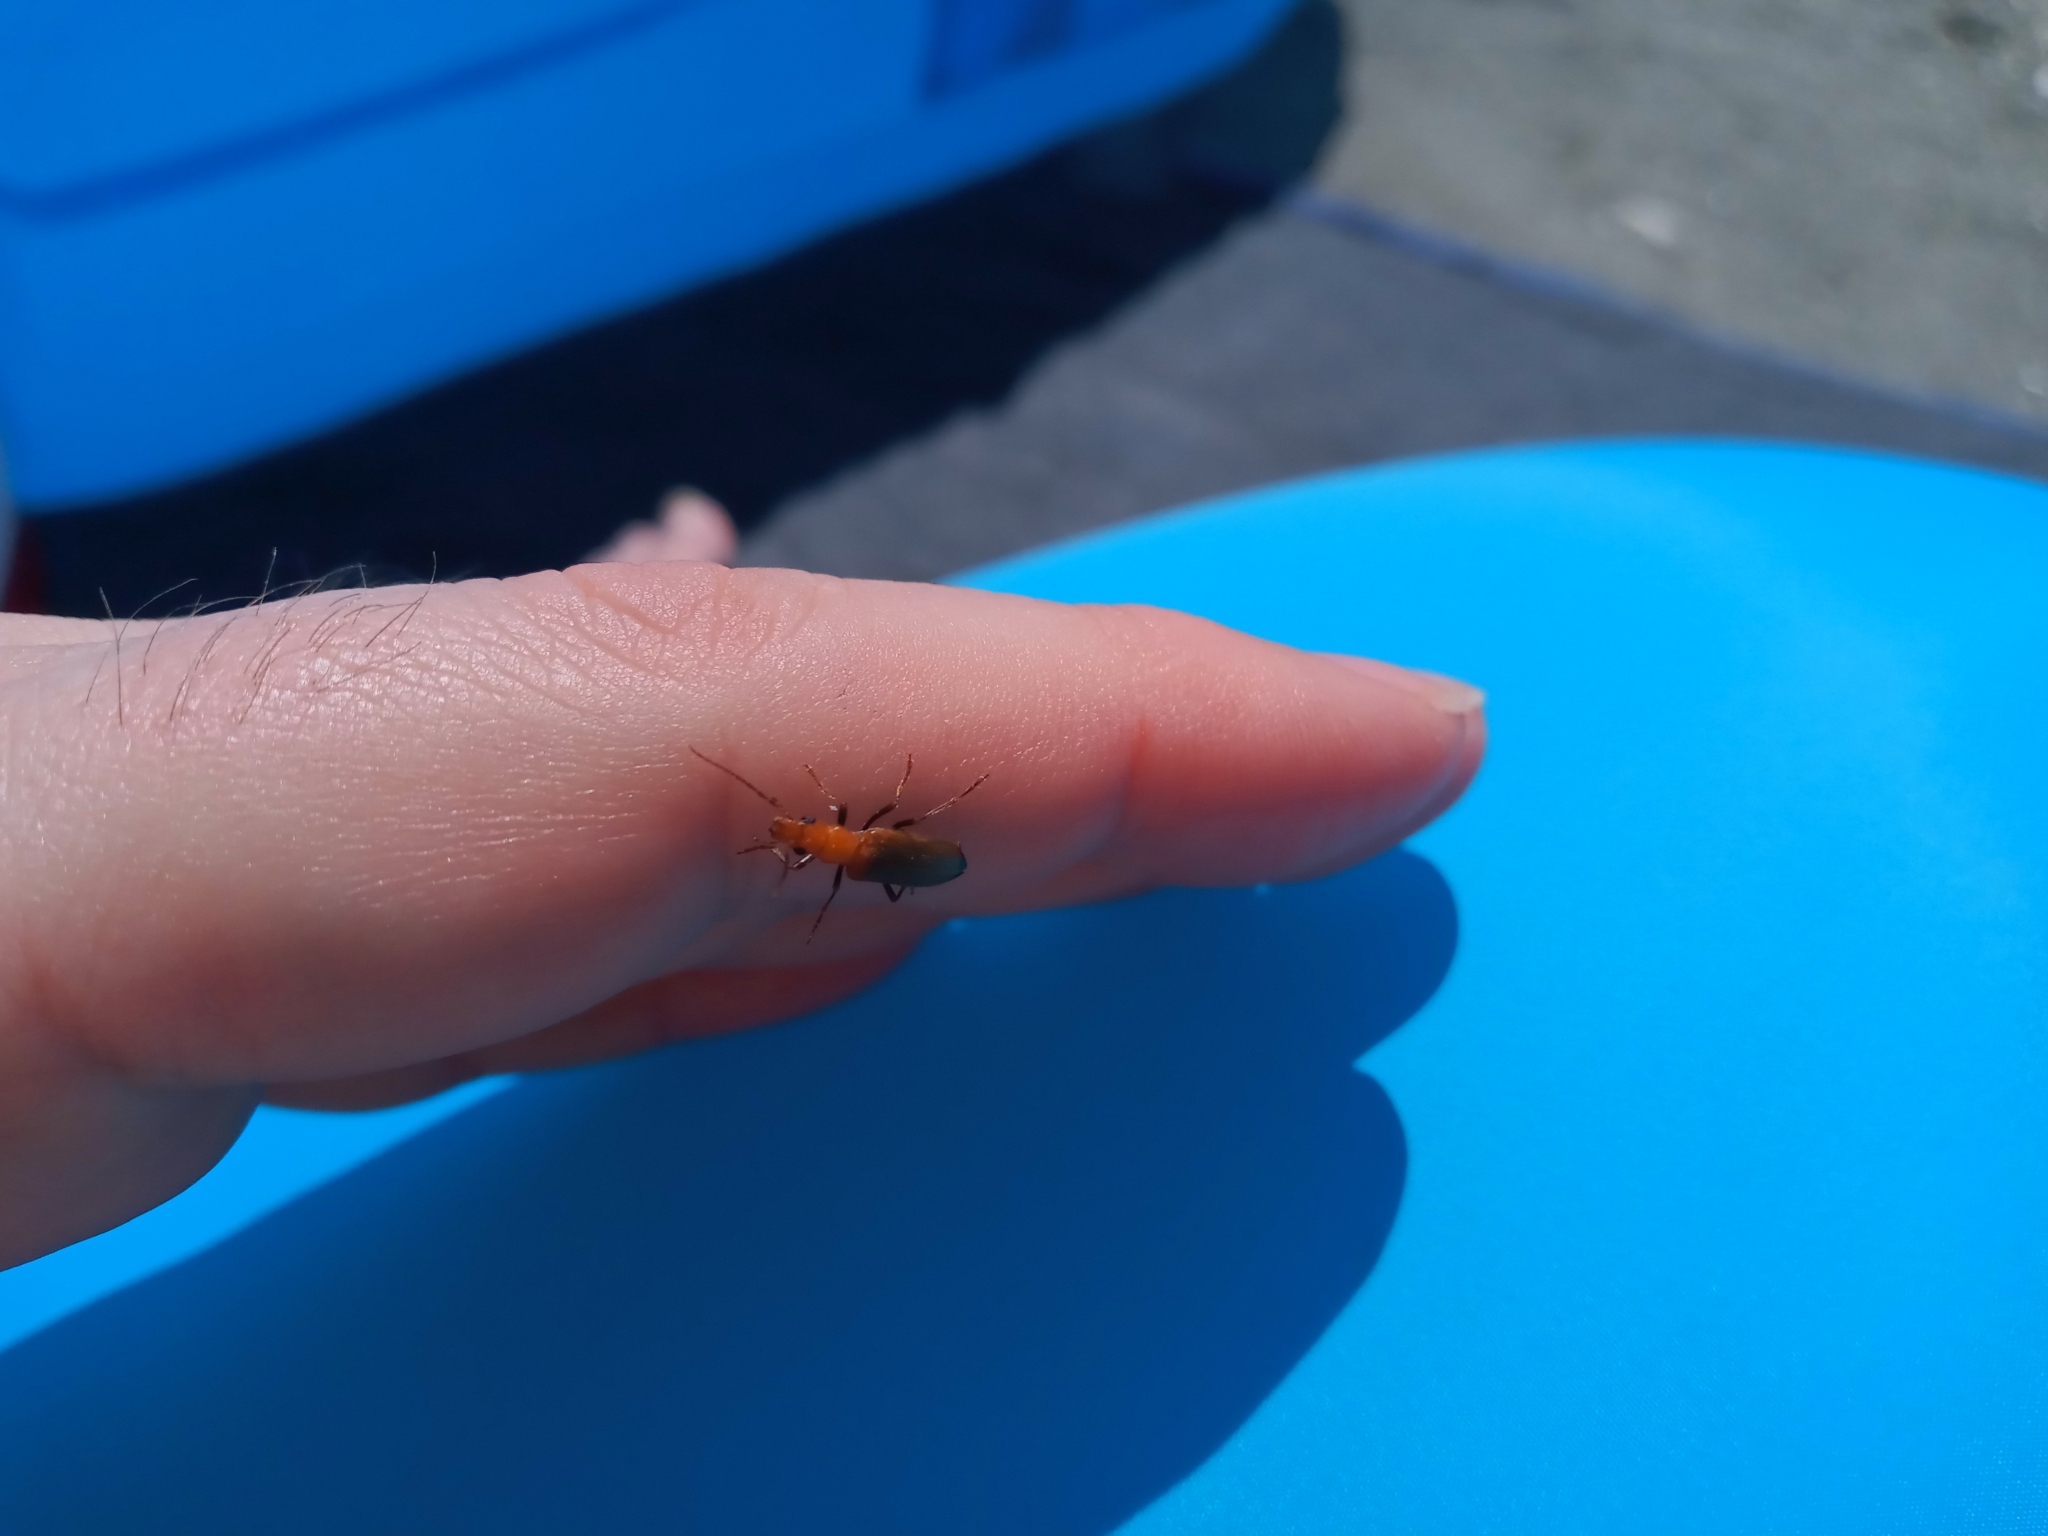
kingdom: Animalia
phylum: Arthropoda
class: Insecta
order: Coleoptera
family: Oedemeridae
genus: Nacerdes
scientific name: Nacerdes melanura
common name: Wharf borer
